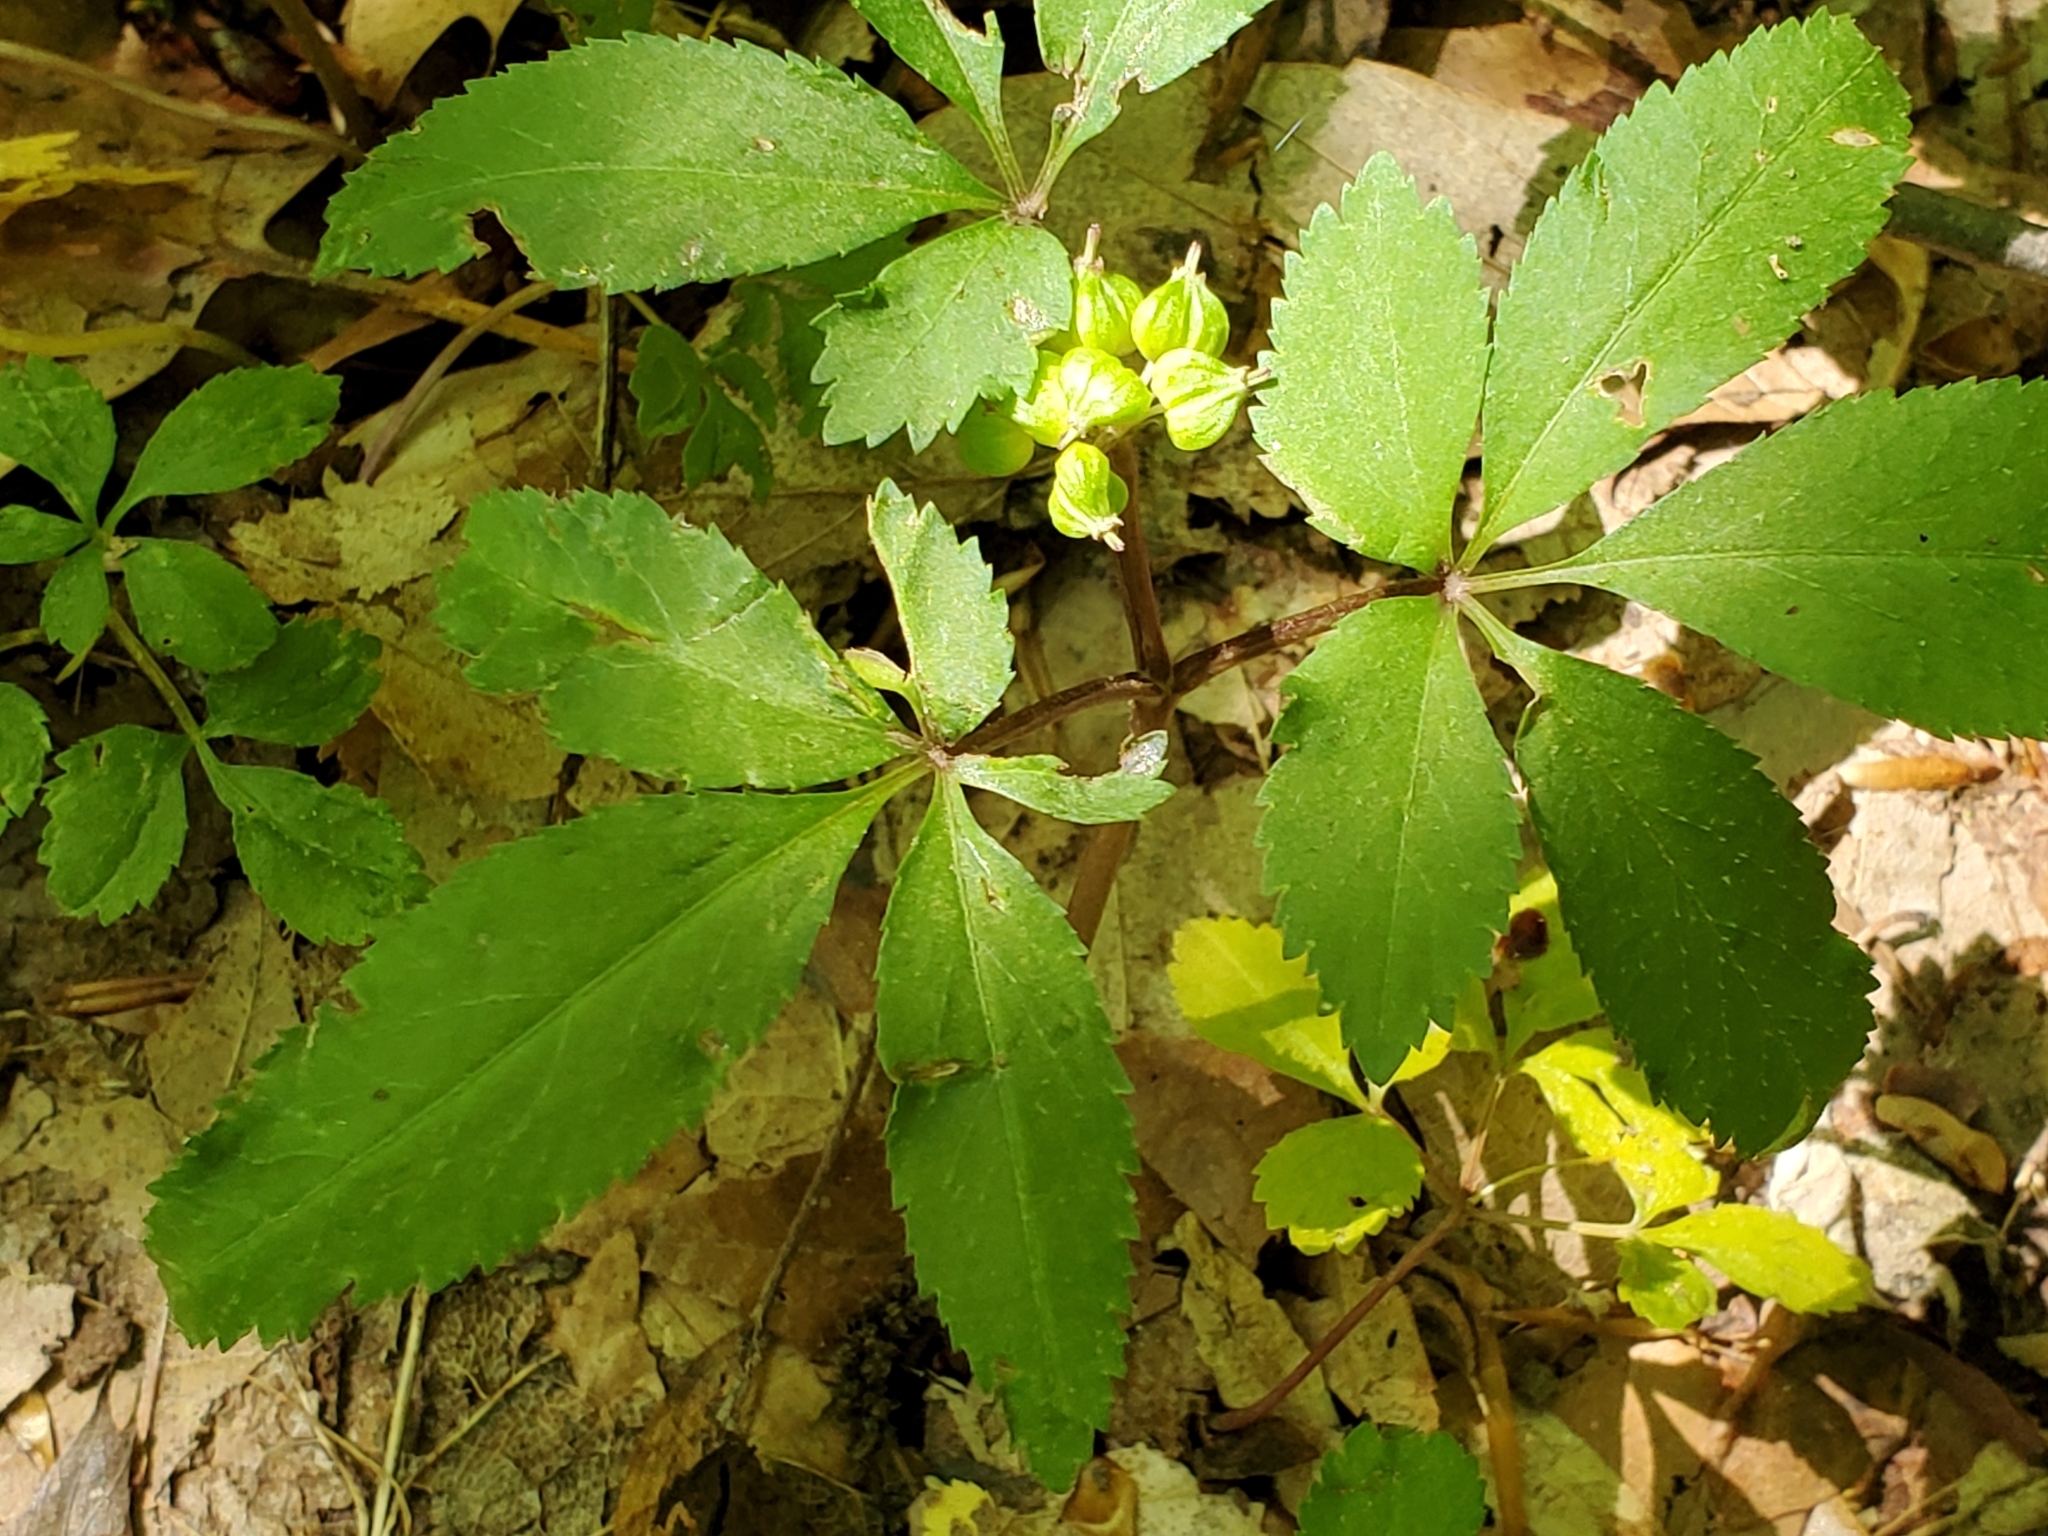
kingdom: Plantae
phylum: Tracheophyta
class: Magnoliopsida
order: Apiales
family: Araliaceae
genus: Panax
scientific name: Panax trifolius
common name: Dwarf ginseng
